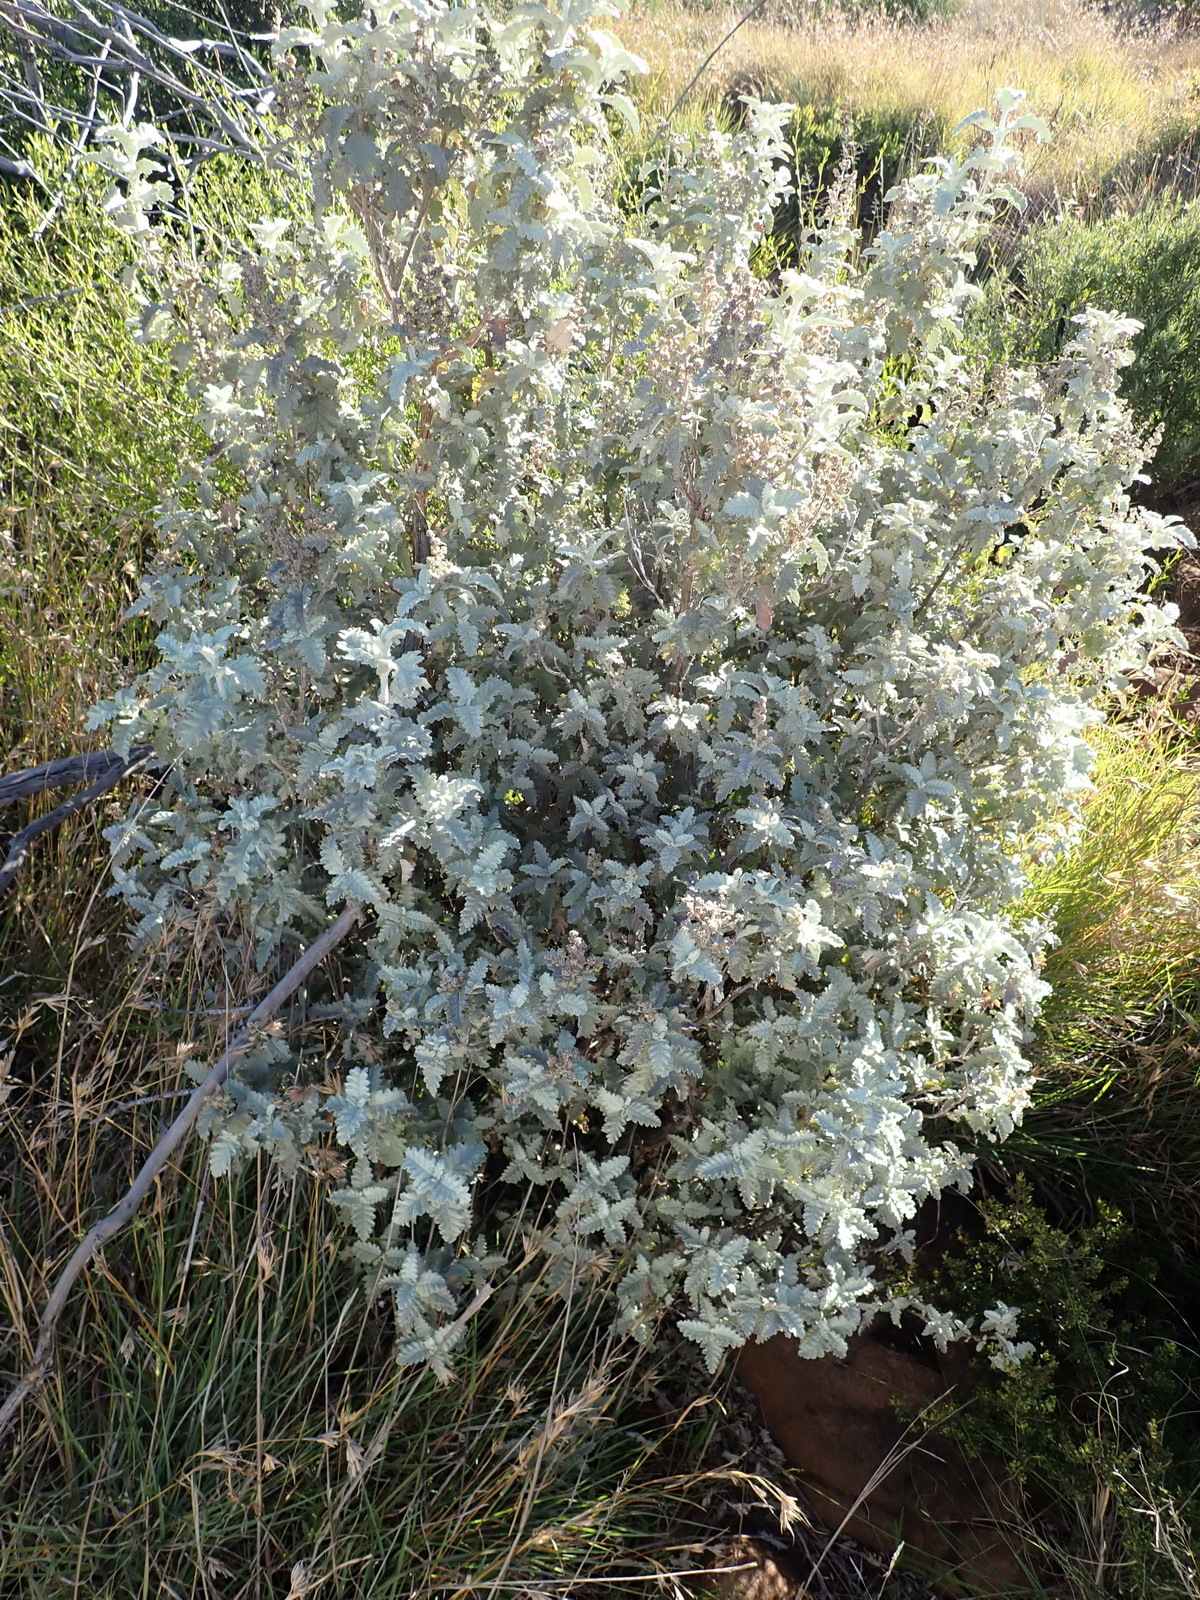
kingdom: Plantae
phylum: Tracheophyta
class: Magnoliopsida
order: Lamiales
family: Scrophulariaceae
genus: Buddleja
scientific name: Buddleja glomerata
